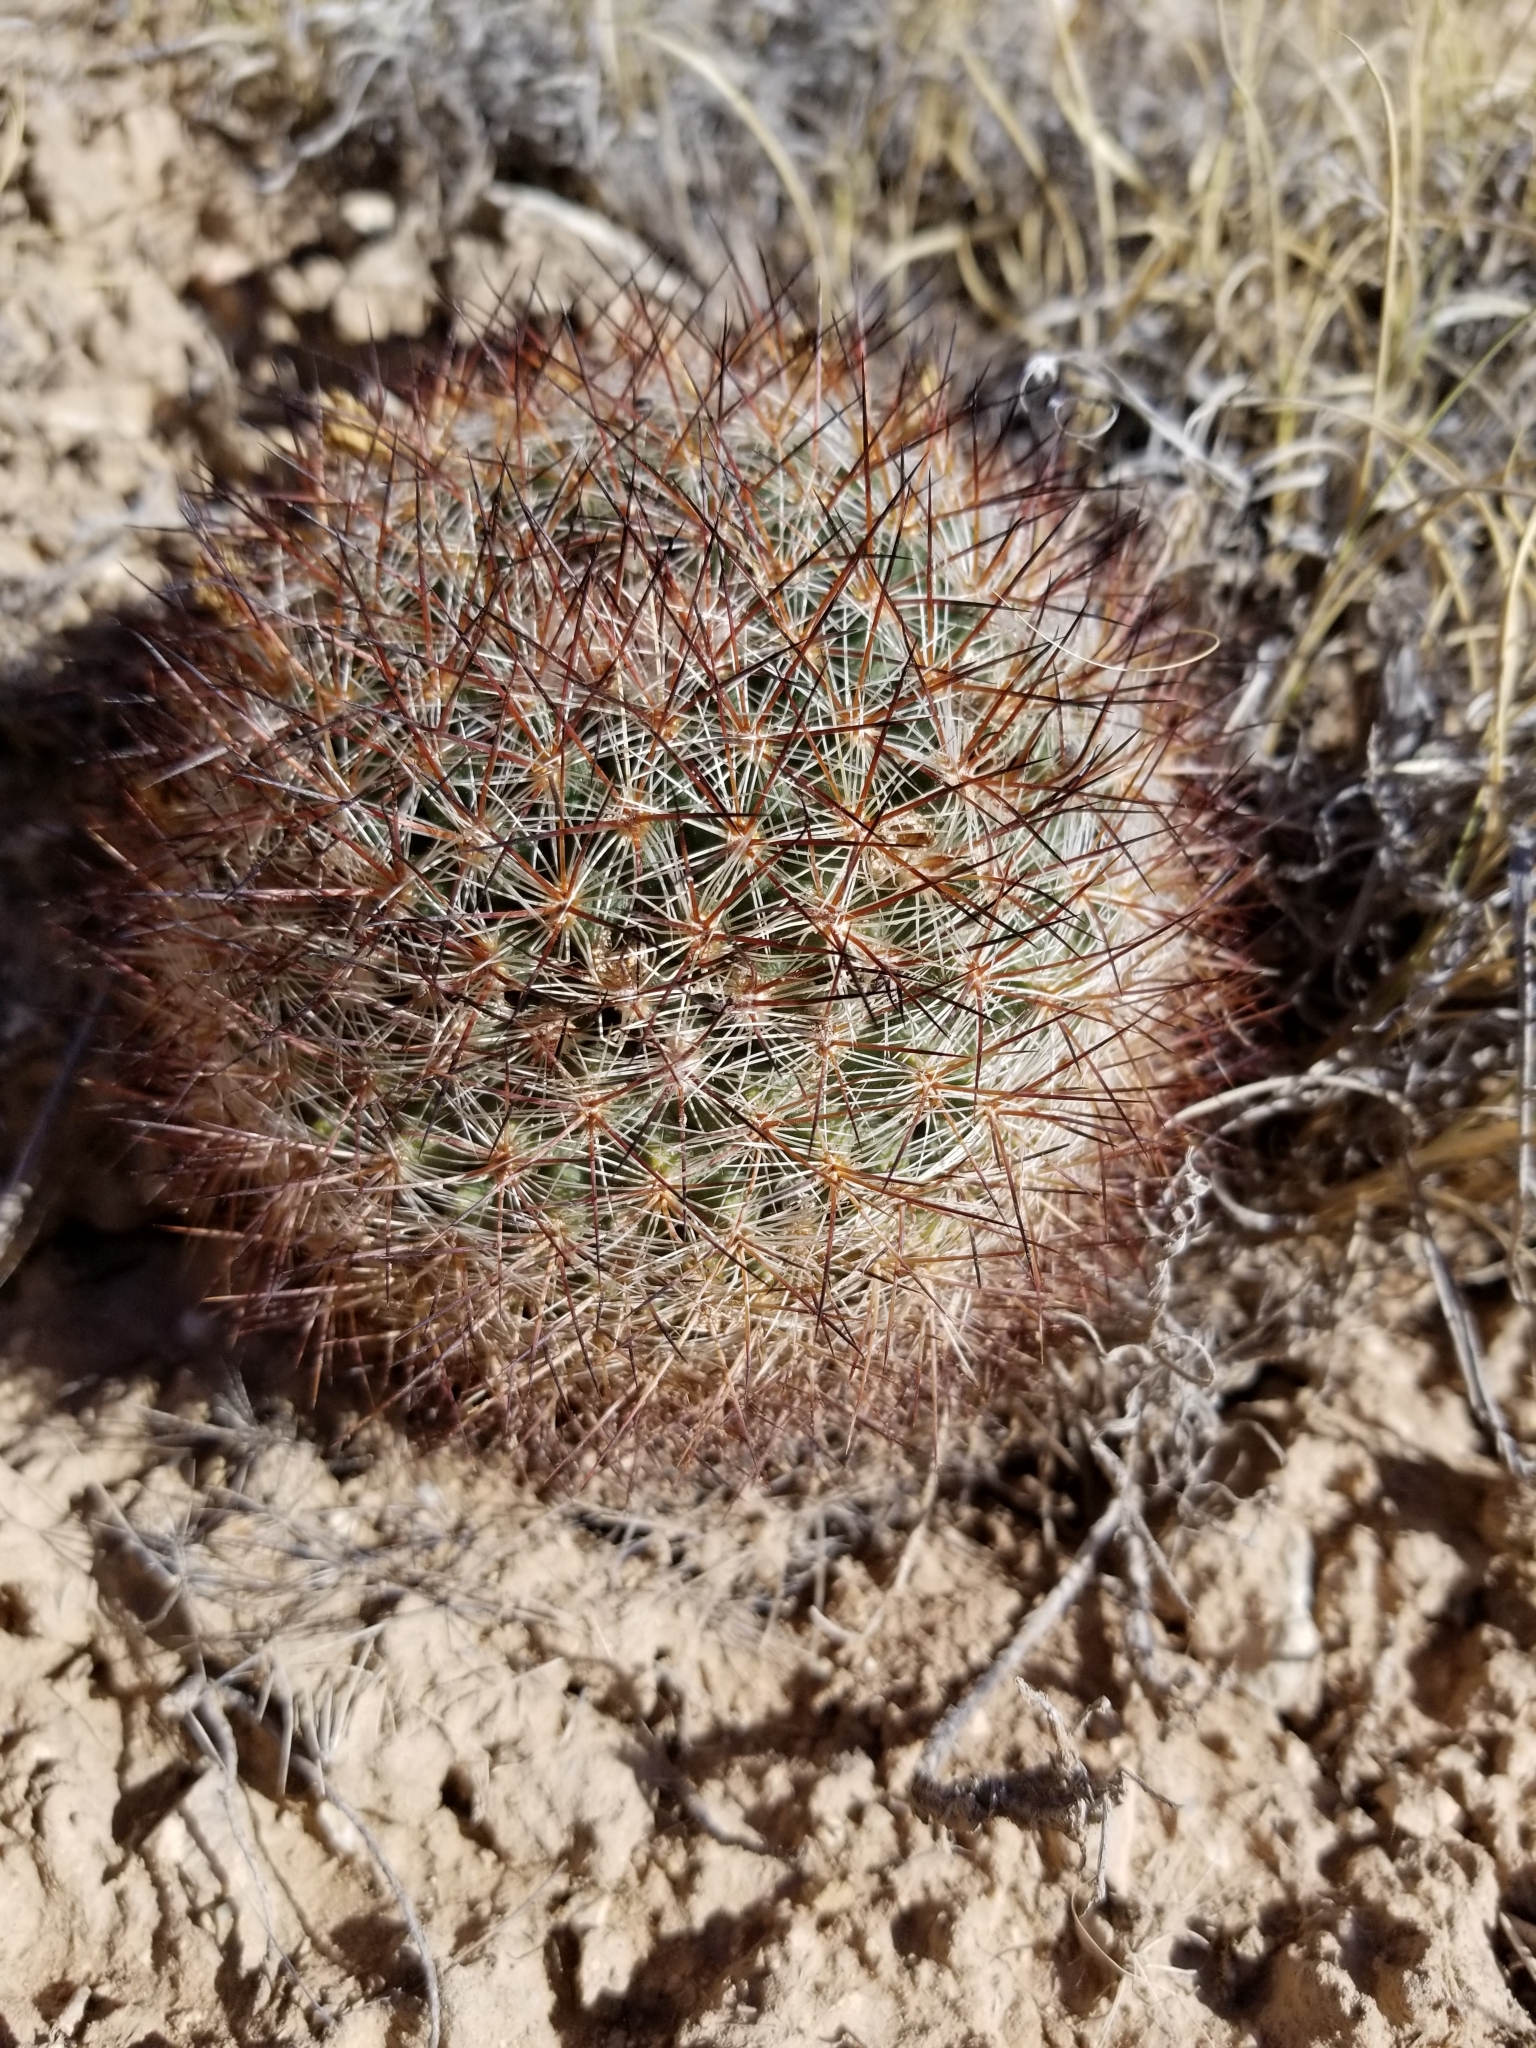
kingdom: Plantae
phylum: Tracheophyta
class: Magnoliopsida
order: Caryophyllales
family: Cactaceae
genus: Pediocactus
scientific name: Pediocactus simpsonii
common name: Simpson's hedgehog cactus
